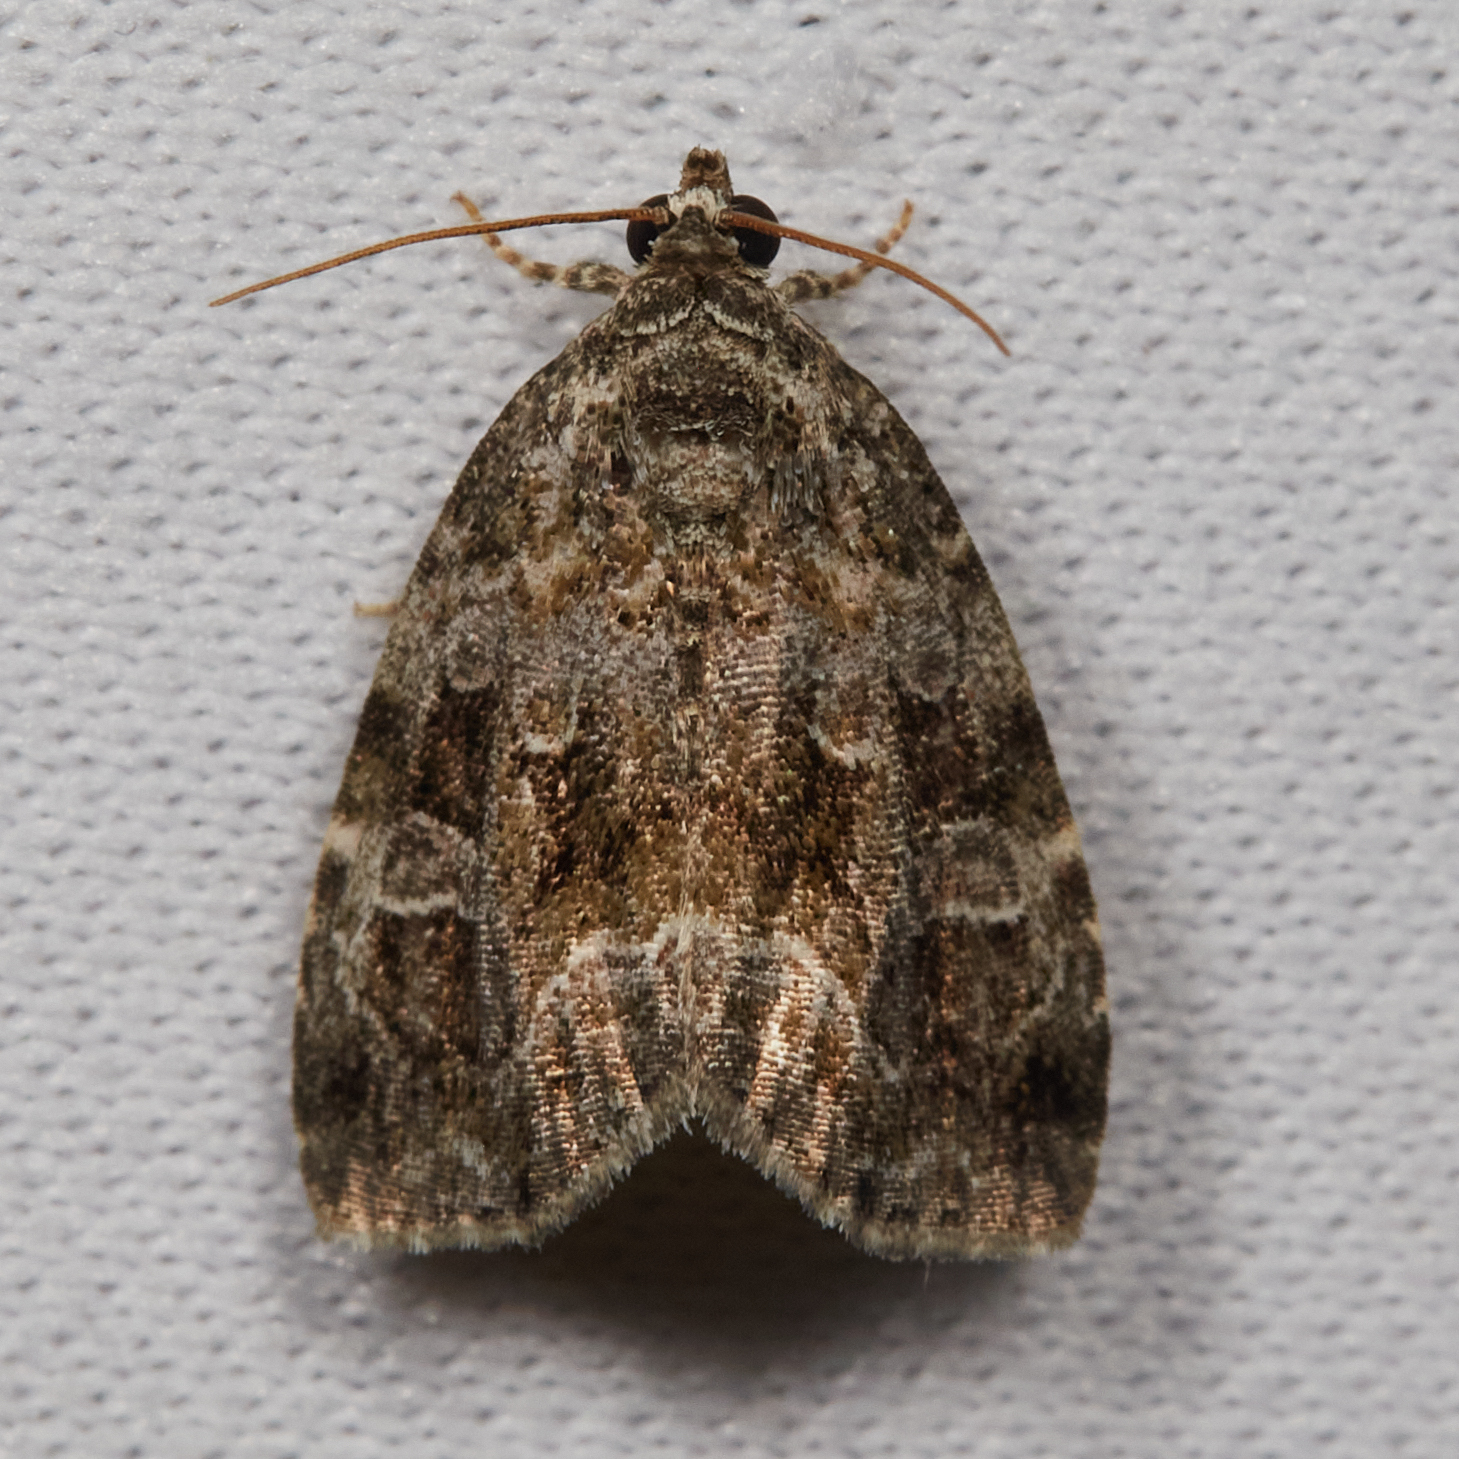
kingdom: Animalia
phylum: Arthropoda
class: Insecta
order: Lepidoptera
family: Noctuidae
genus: Protodeltote
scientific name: Protodeltote muscosula
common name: Large mossy glyph
